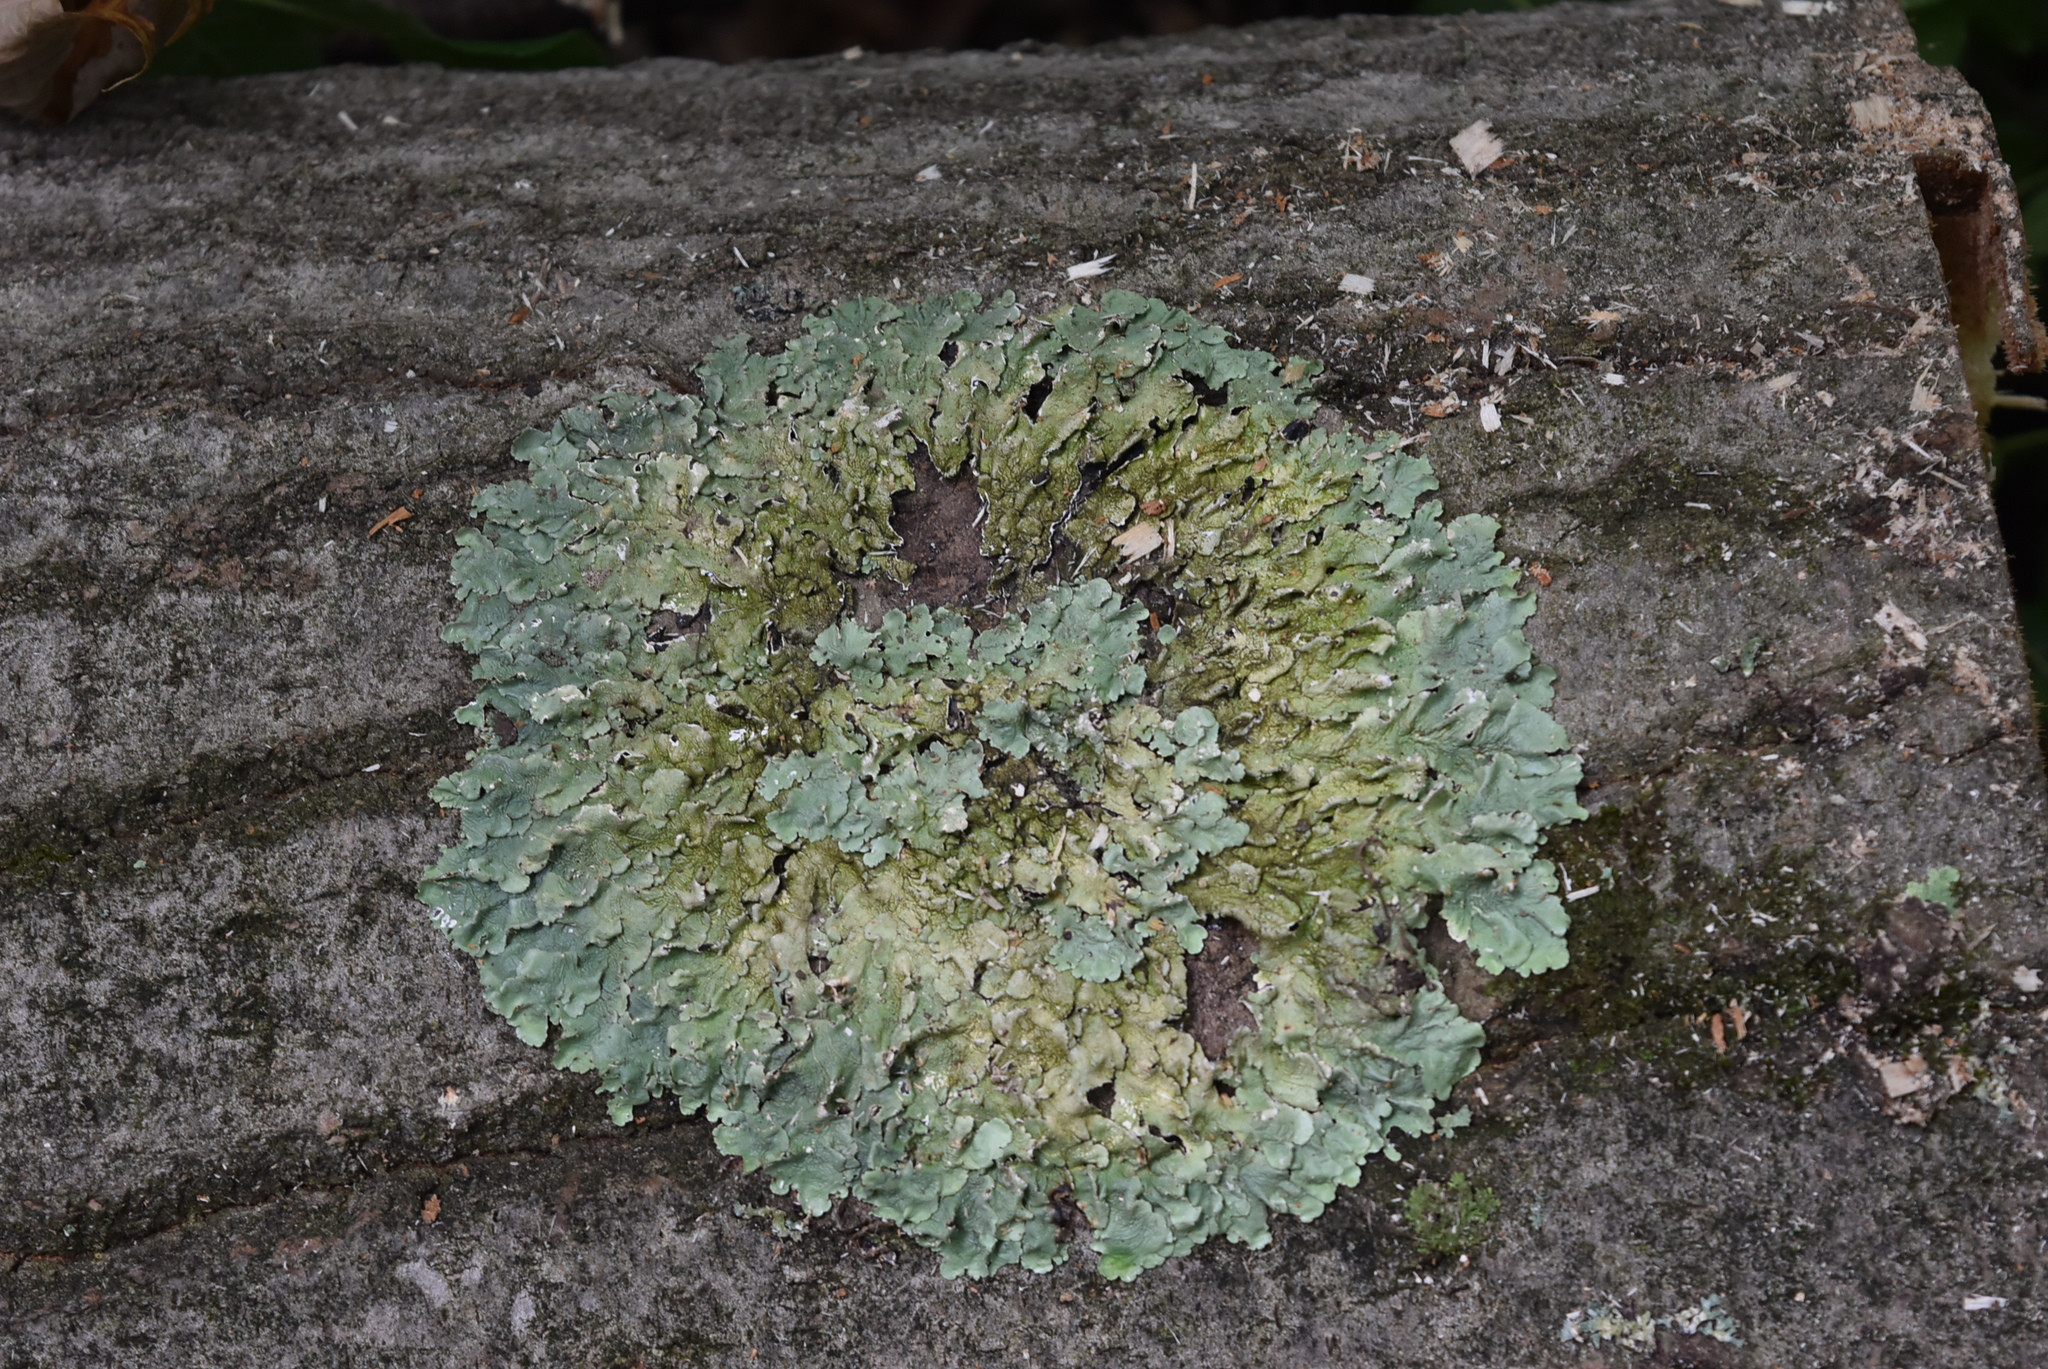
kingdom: Fungi
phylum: Ascomycota
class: Lecanoromycetes
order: Lecanorales
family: Parmeliaceae
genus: Flavoparmelia
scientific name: Flavoparmelia caperata
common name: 40-mile per hour lichen
